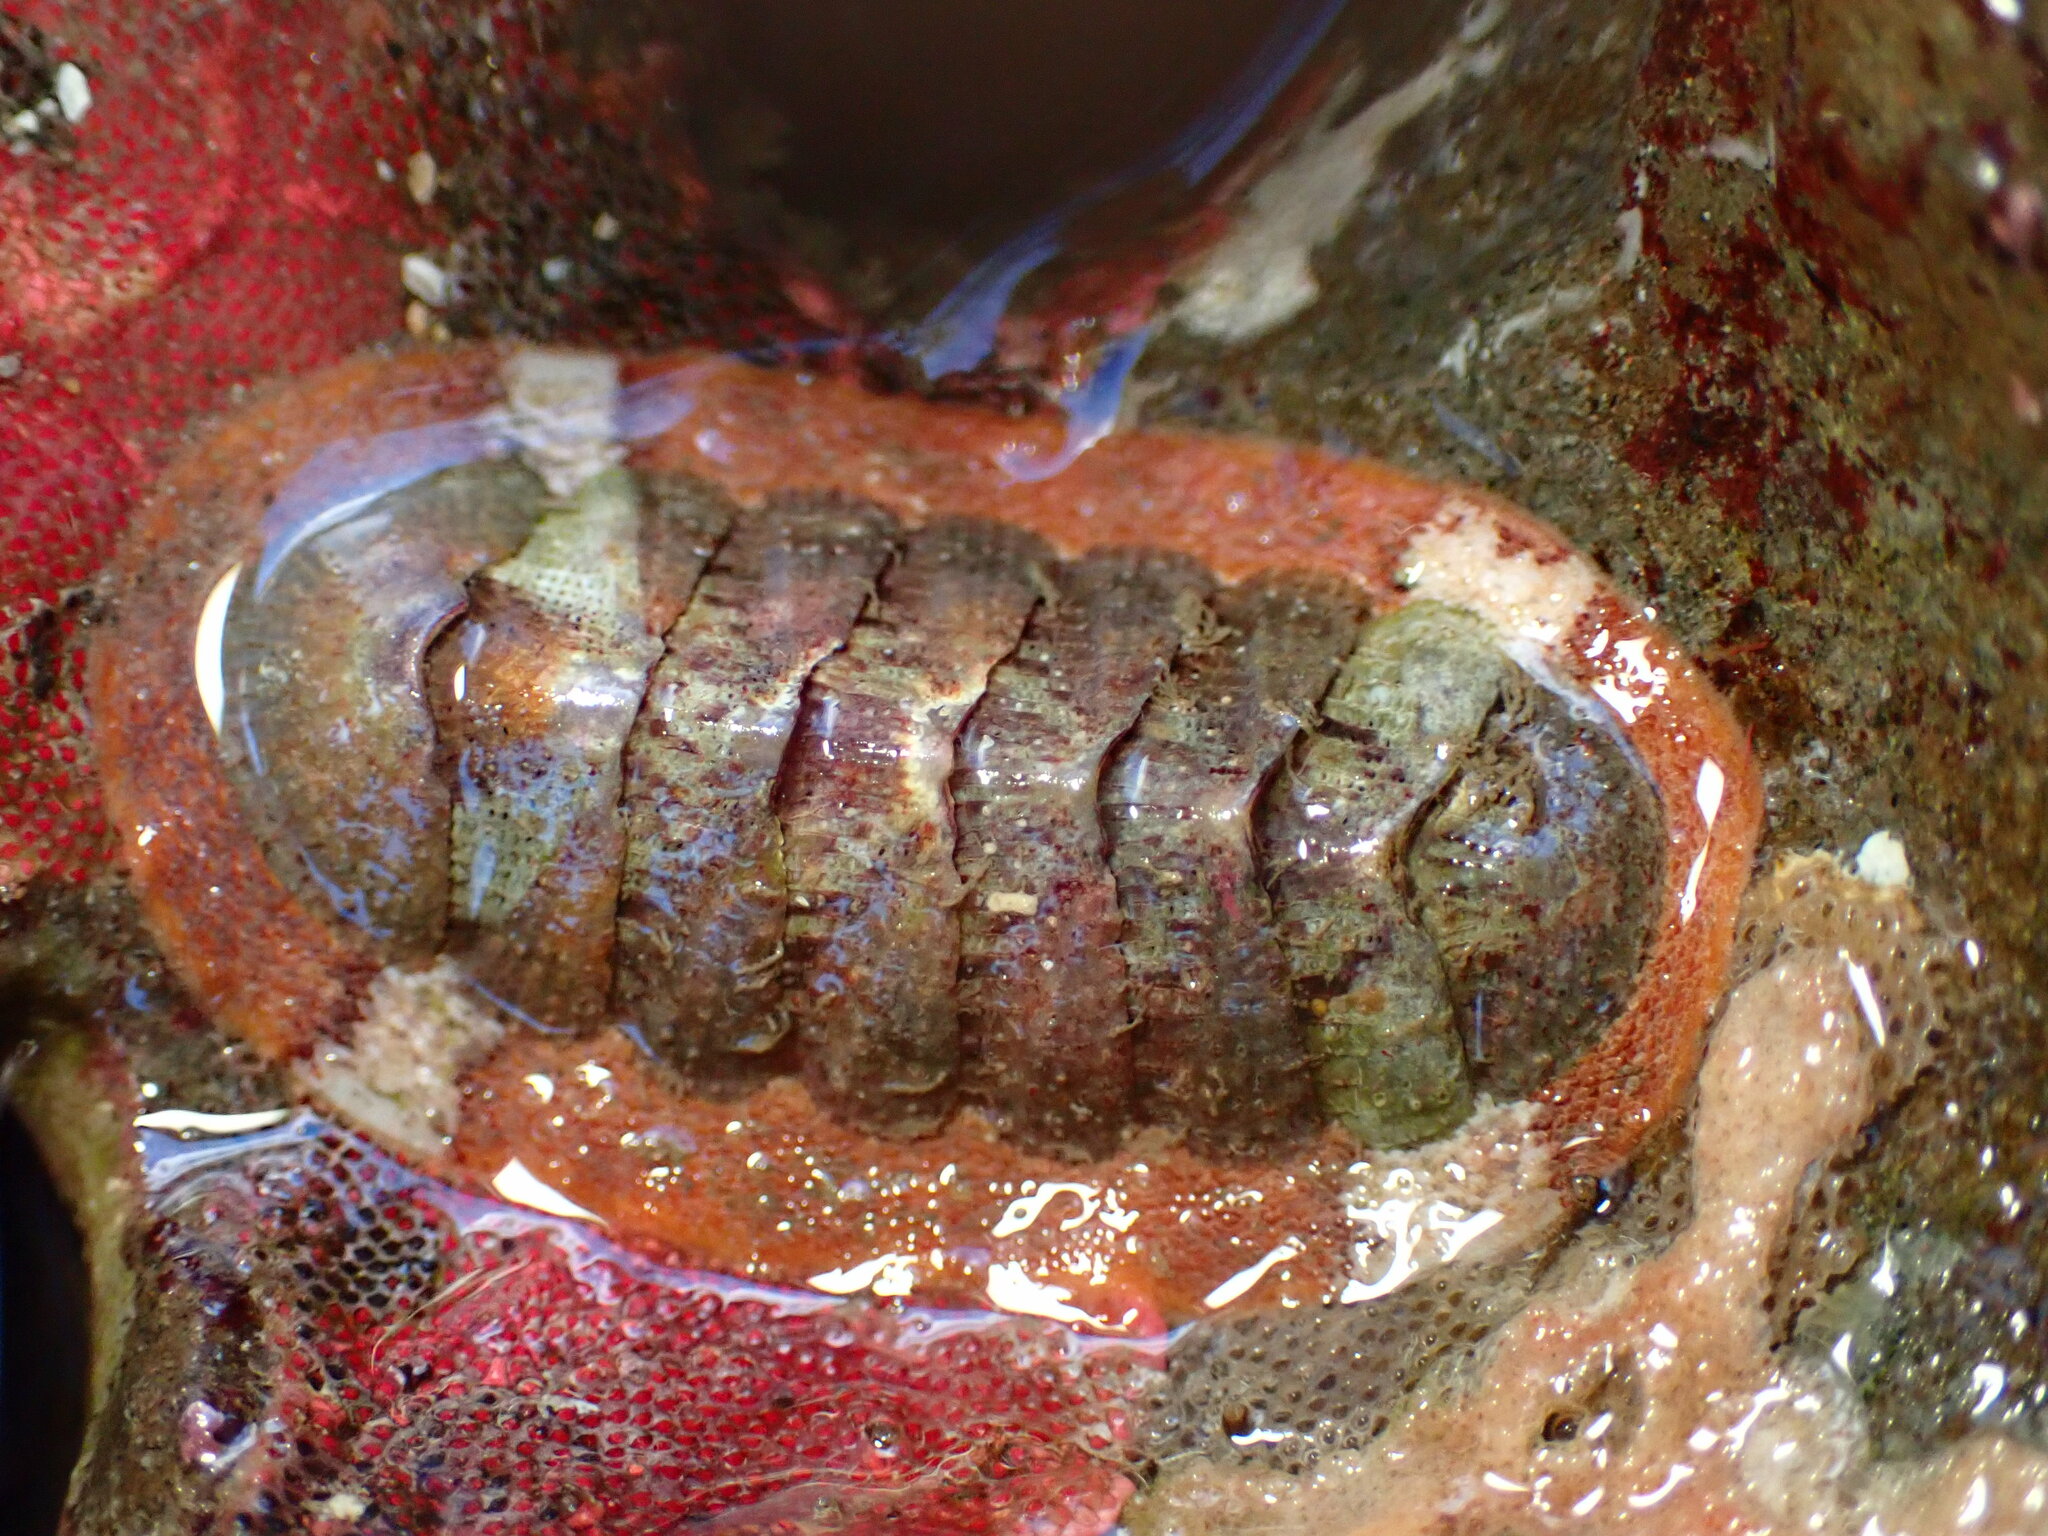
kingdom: Animalia
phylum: Mollusca
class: Polyplacophora
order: Chitonida
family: Ischnochitonidae
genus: Lepidozona
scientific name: Lepidozona mertensii
